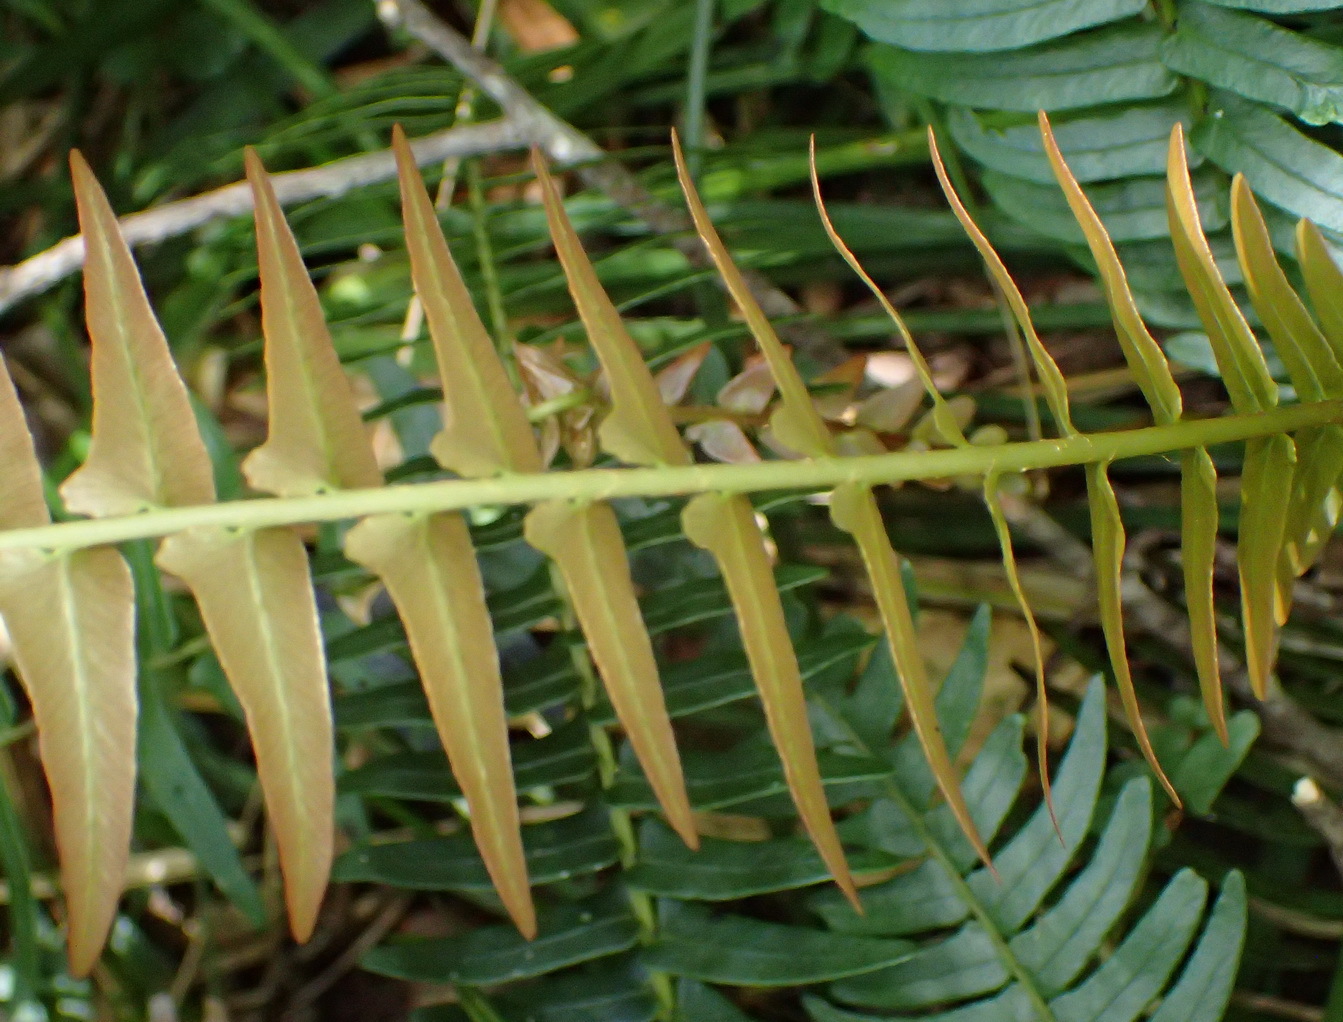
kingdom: Plantae
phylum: Tracheophyta
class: Polypodiopsida
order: Polypodiales
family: Blechnaceae
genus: Blechnum
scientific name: Blechnum punctulatum
